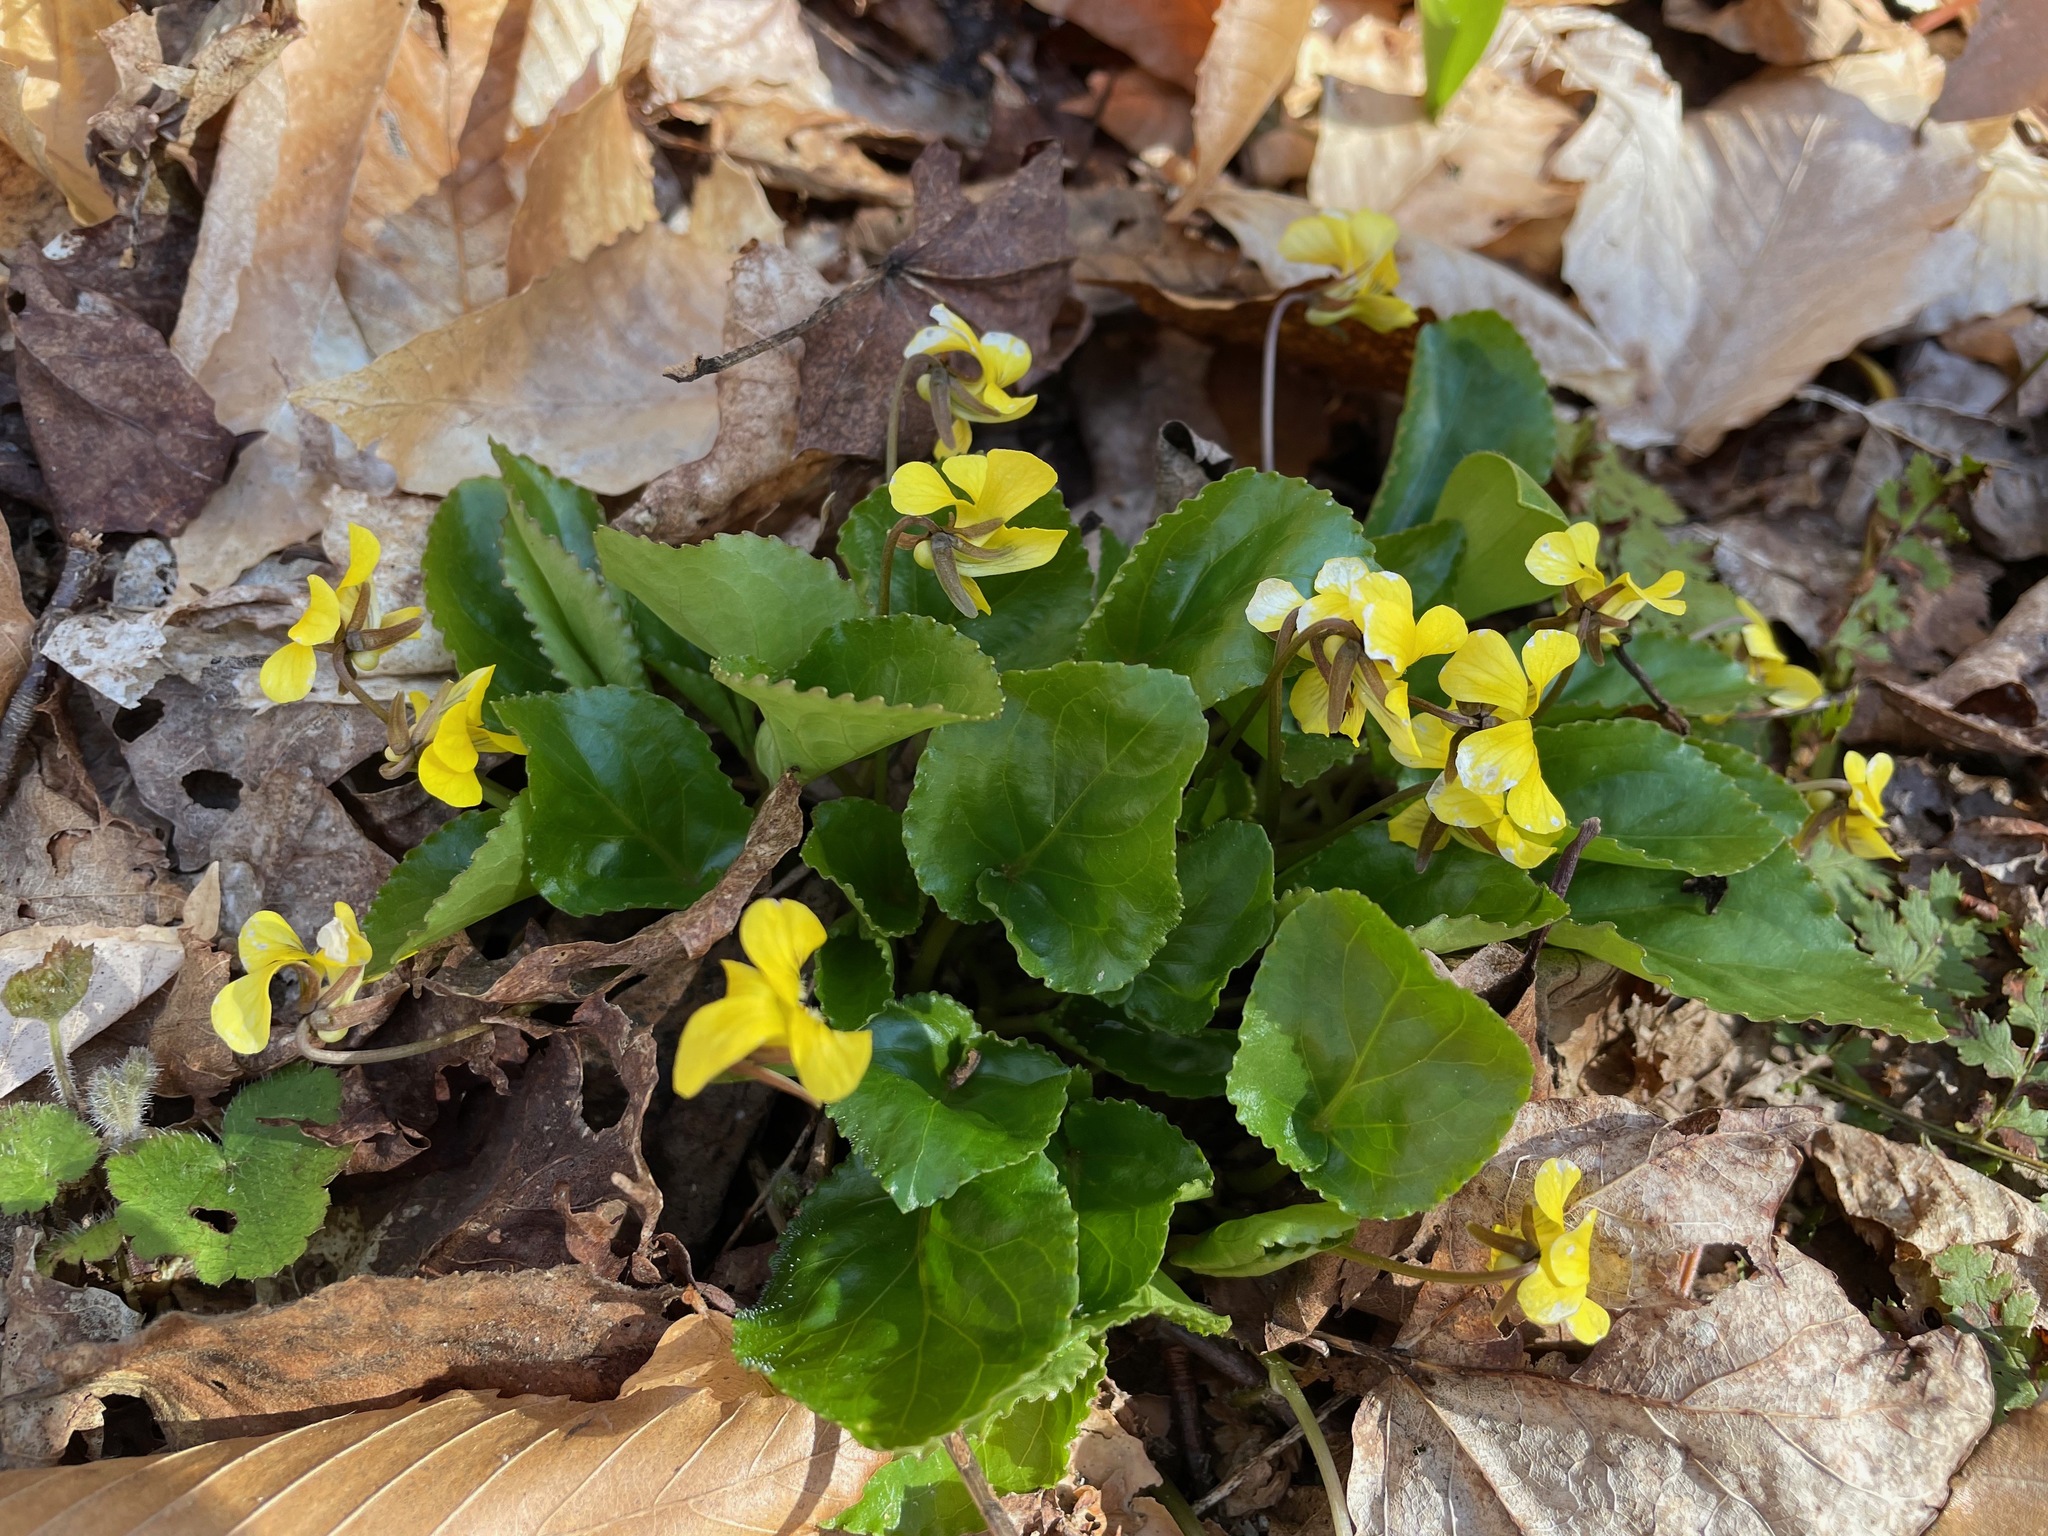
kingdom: Plantae
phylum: Tracheophyta
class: Magnoliopsida
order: Malpighiales
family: Violaceae
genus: Viola
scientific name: Viola rotundifolia
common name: Early yellow violet
